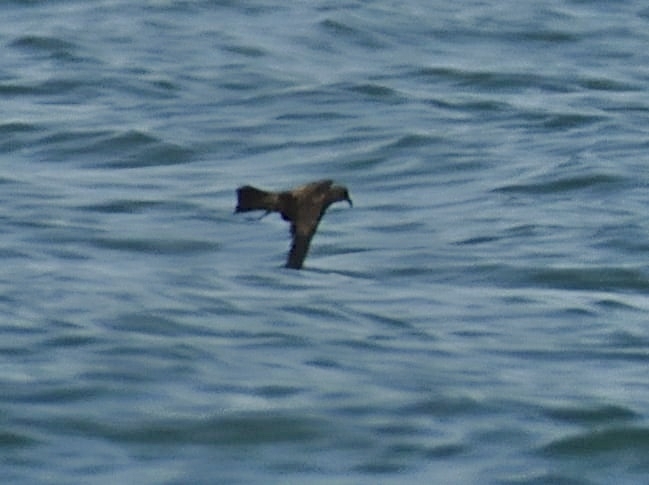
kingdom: Animalia
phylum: Chordata
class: Aves
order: Procellariiformes
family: Hydrobatidae
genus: Oceanodroma
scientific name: Oceanodroma monorhis
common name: Swinhoe's storm-petrel
